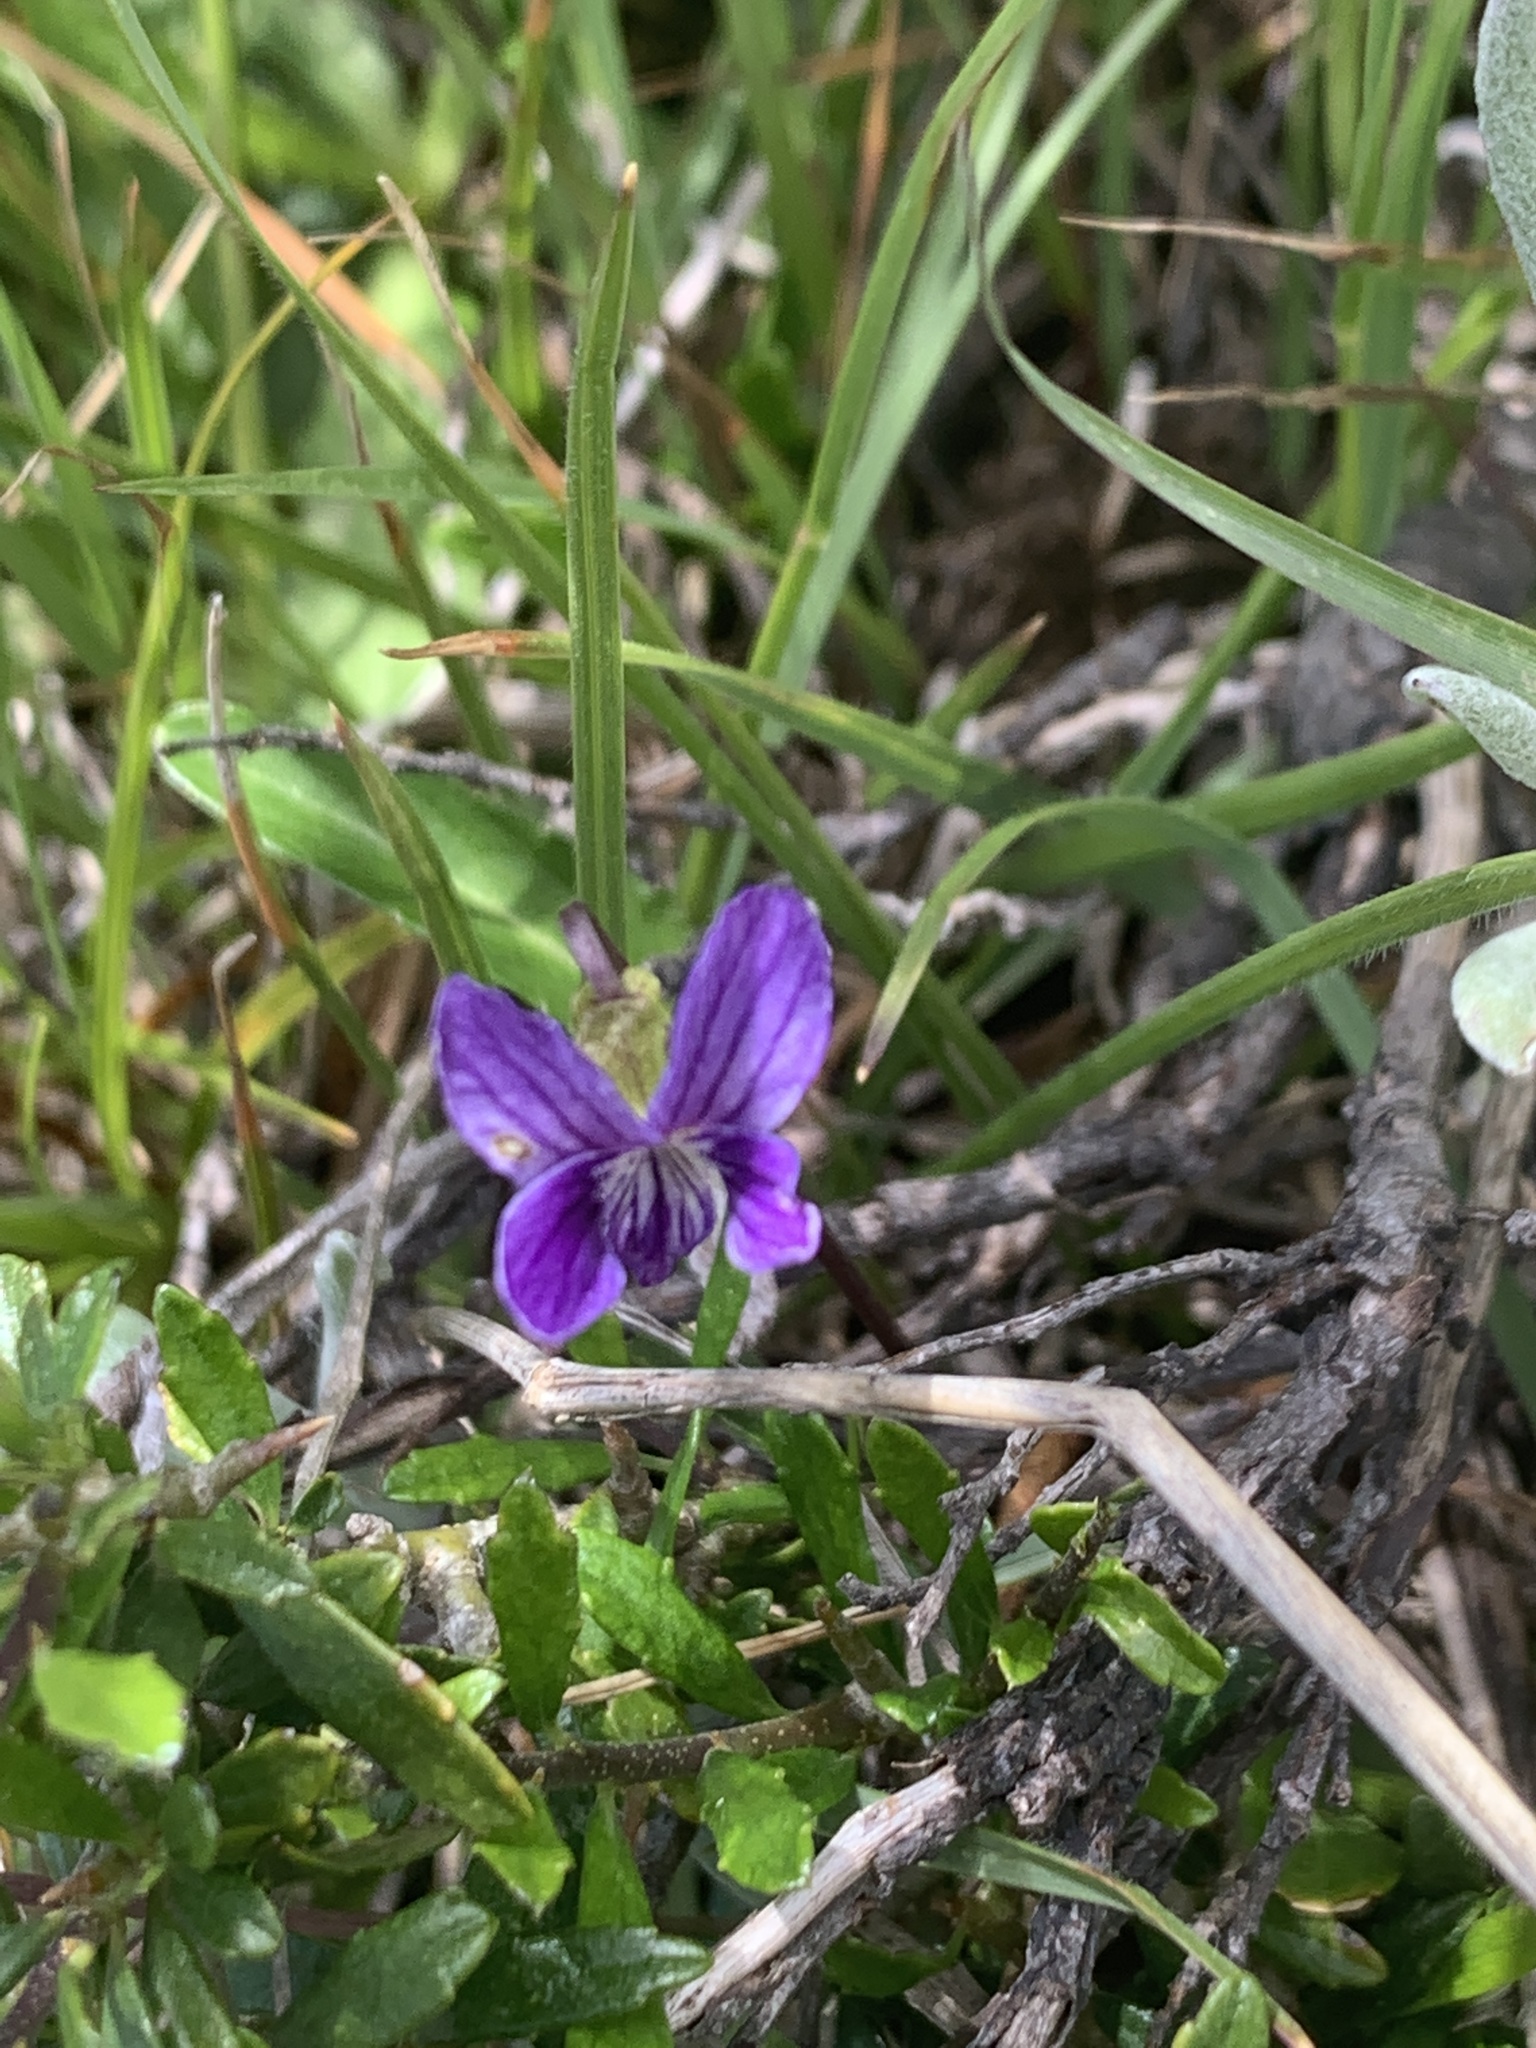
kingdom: Plantae
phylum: Tracheophyta
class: Magnoliopsida
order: Malpighiales
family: Violaceae
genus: Viola
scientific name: Viola betonicifolia
